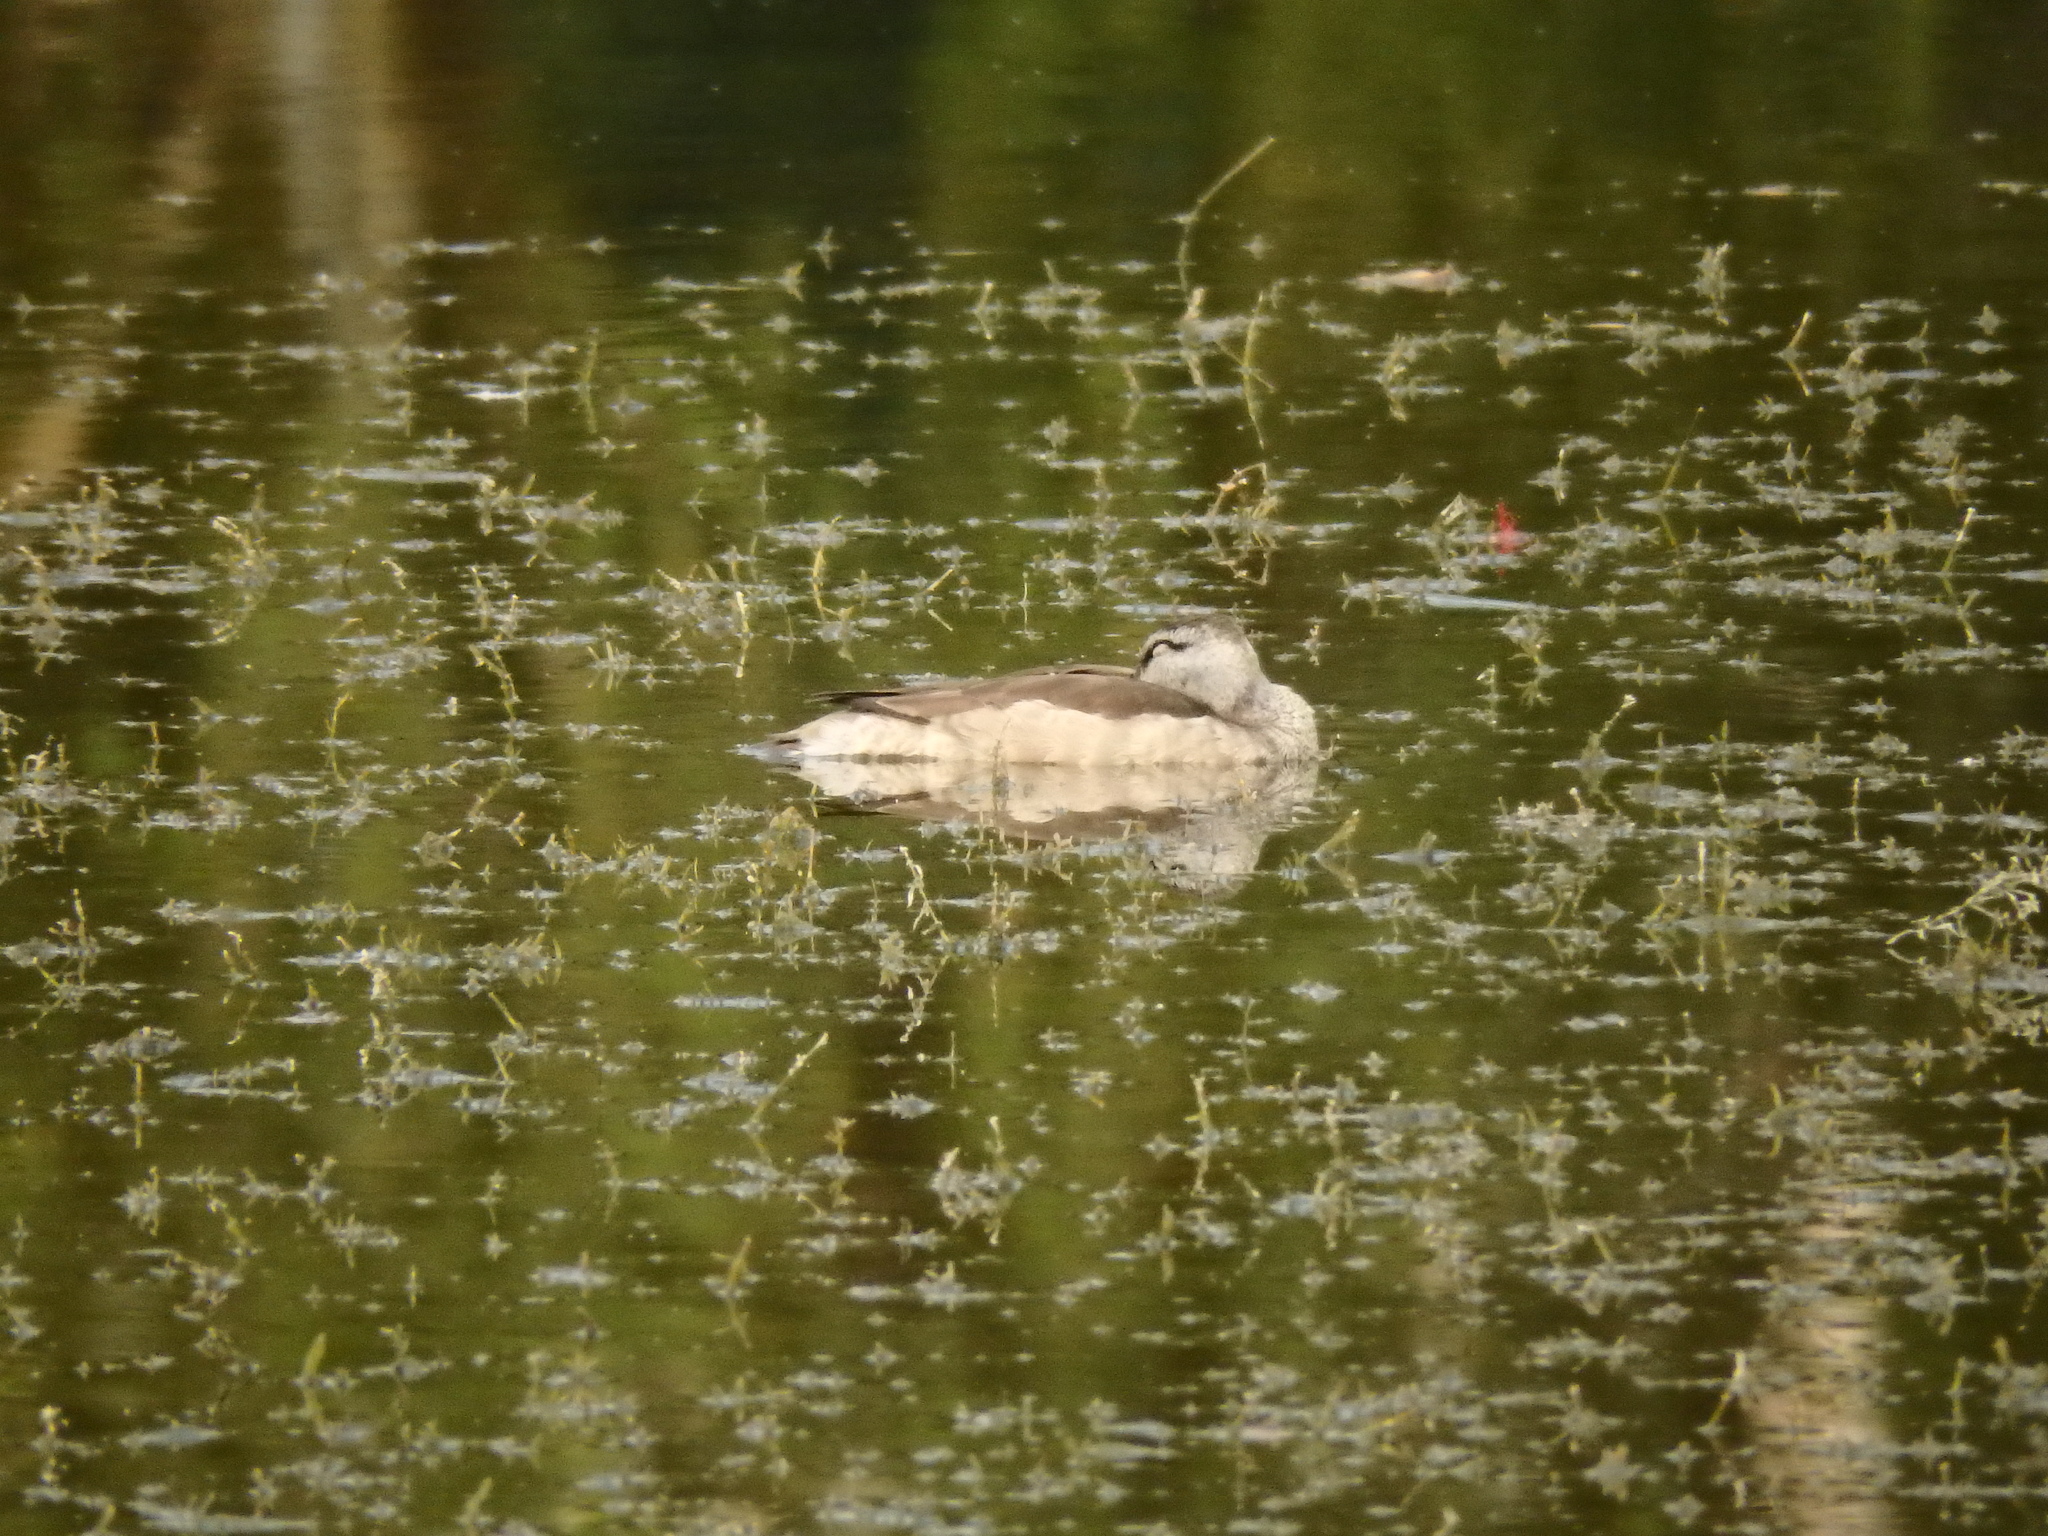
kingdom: Animalia
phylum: Chordata
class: Aves
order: Anseriformes
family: Anatidae
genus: Nettapus
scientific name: Nettapus coromandelianus
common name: Cotton pygmy-goose
